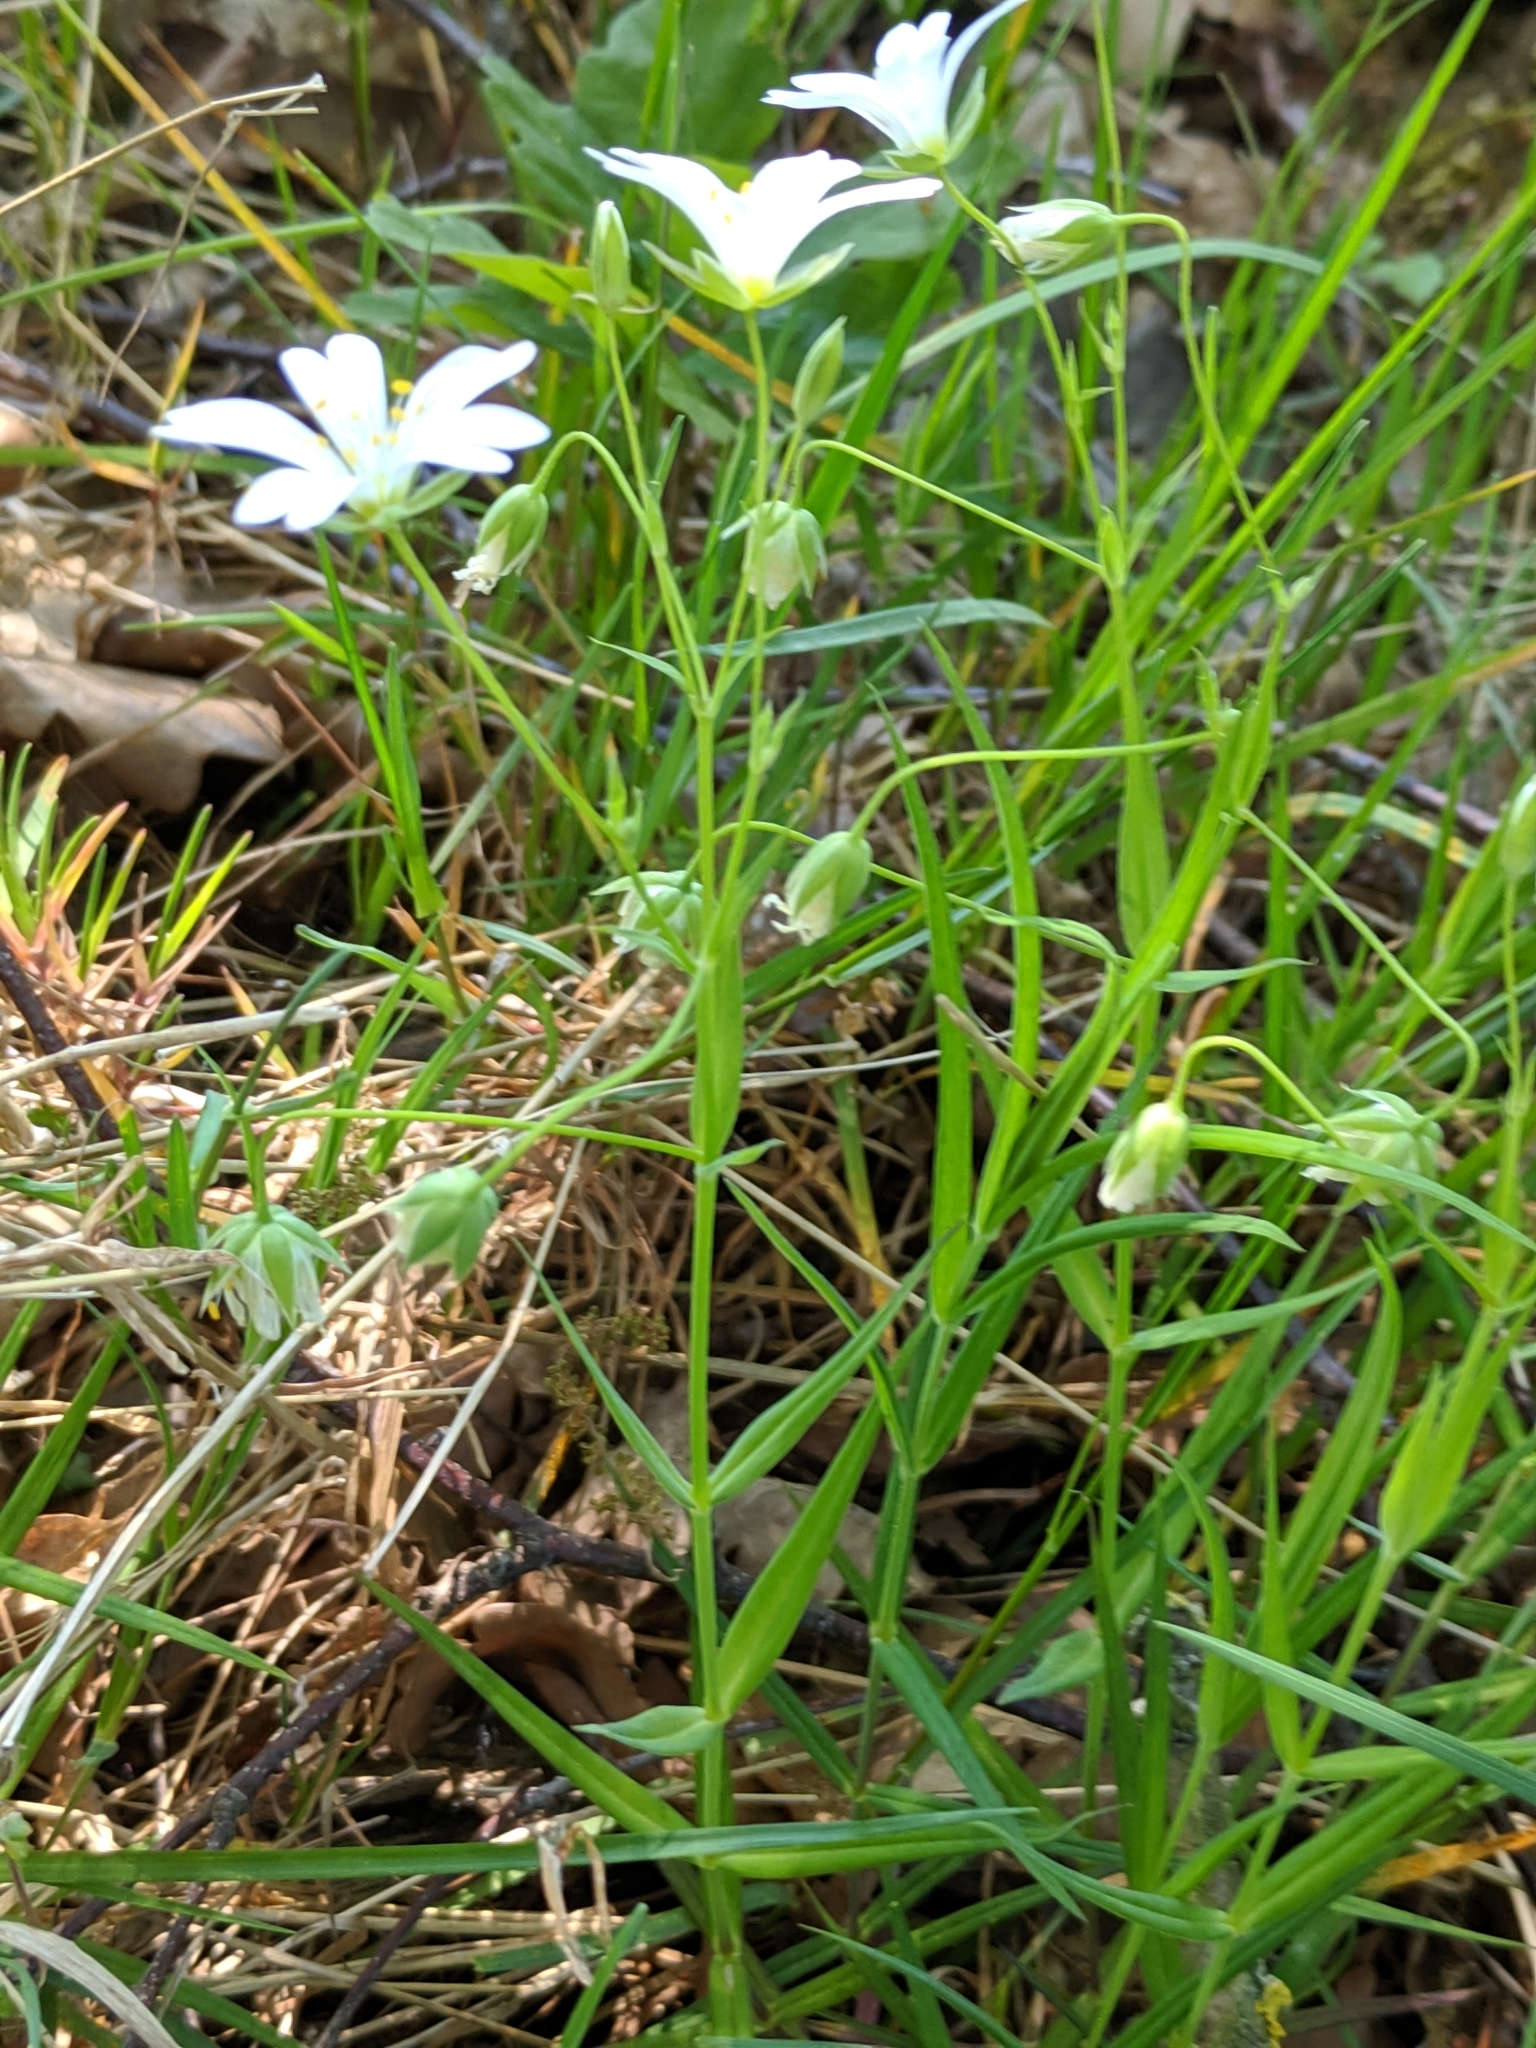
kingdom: Plantae
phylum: Tracheophyta
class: Magnoliopsida
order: Caryophyllales
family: Caryophyllaceae
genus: Rabelera
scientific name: Rabelera holostea
